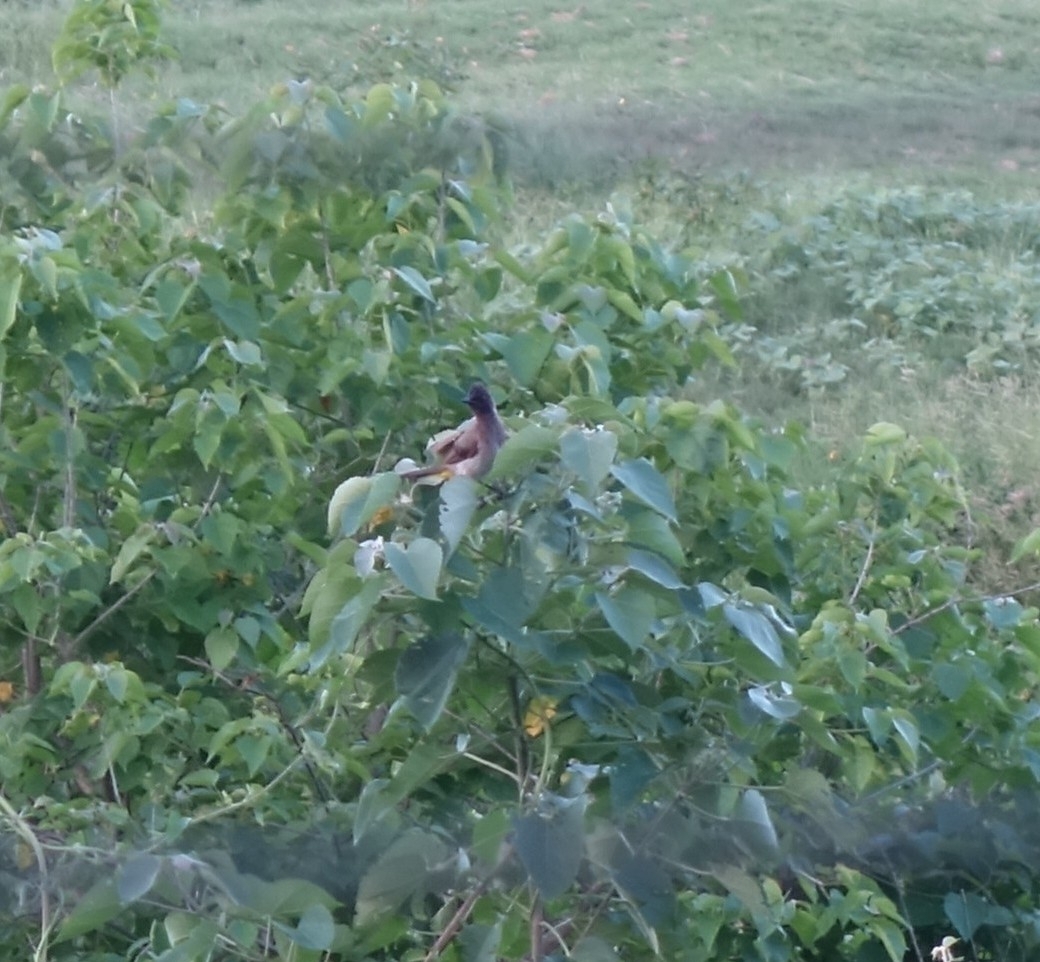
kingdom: Animalia
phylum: Chordata
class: Aves
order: Passeriformes
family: Pycnonotidae
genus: Pycnonotus
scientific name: Pycnonotus barbatus
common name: Common bulbul
